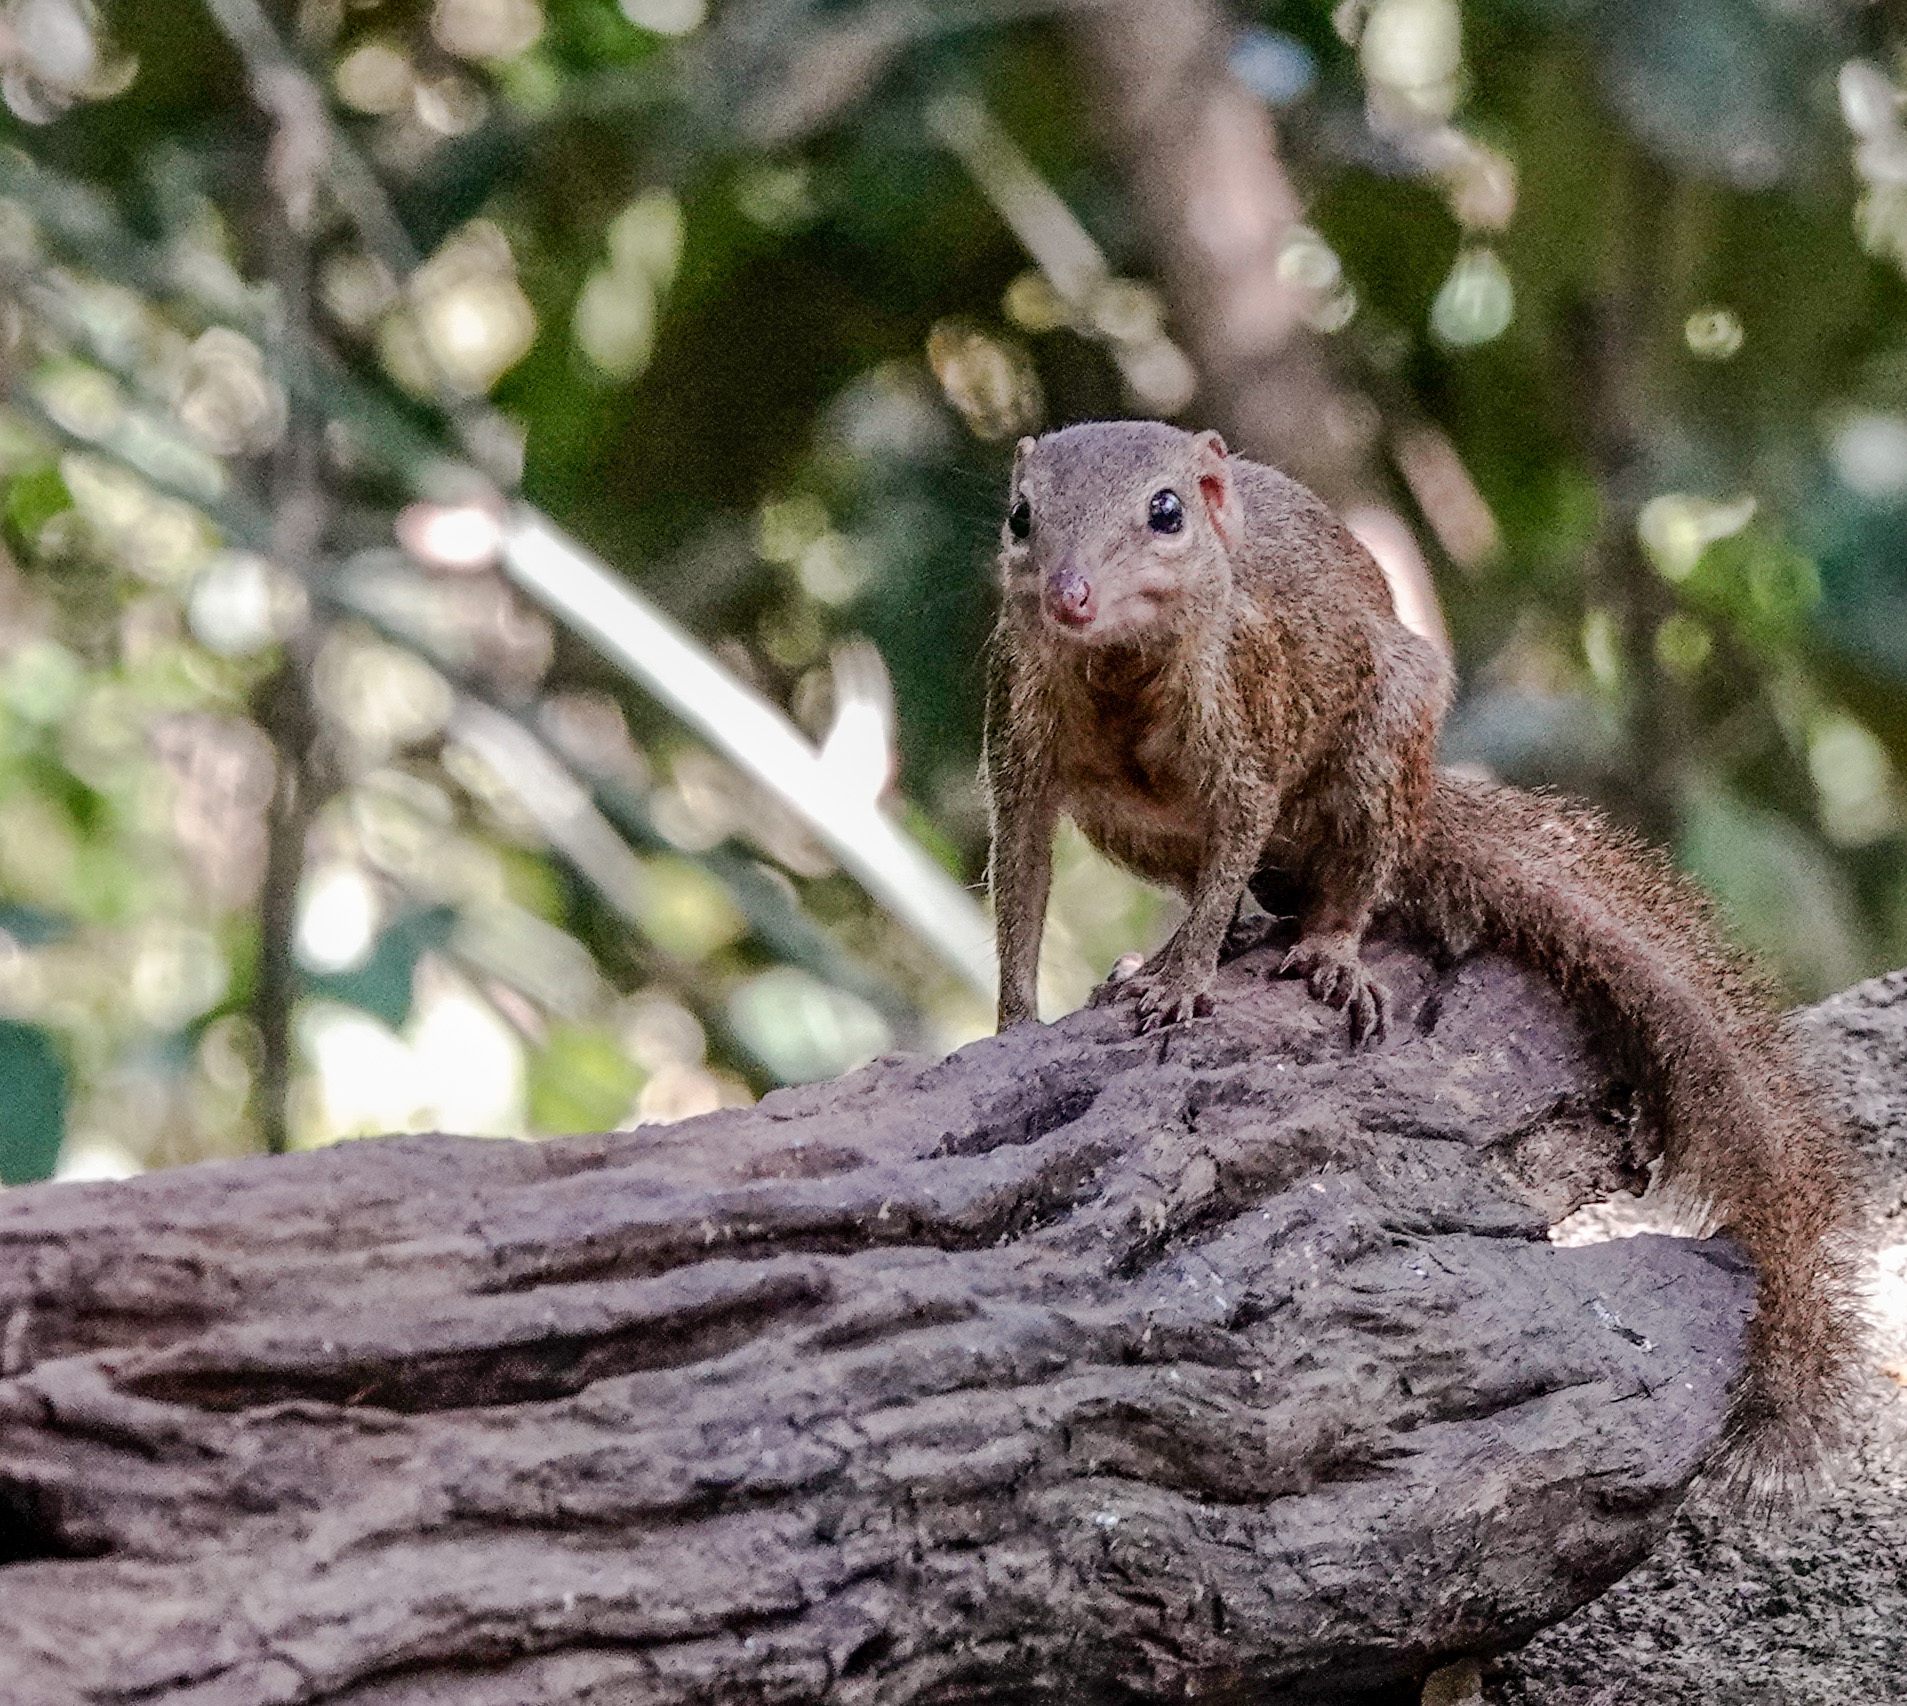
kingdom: Animalia
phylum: Chordata
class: Mammalia
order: Scandentia
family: Tupaiidae
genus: Tupaia
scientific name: Tupaia belangeri
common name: Northern treeshrew
